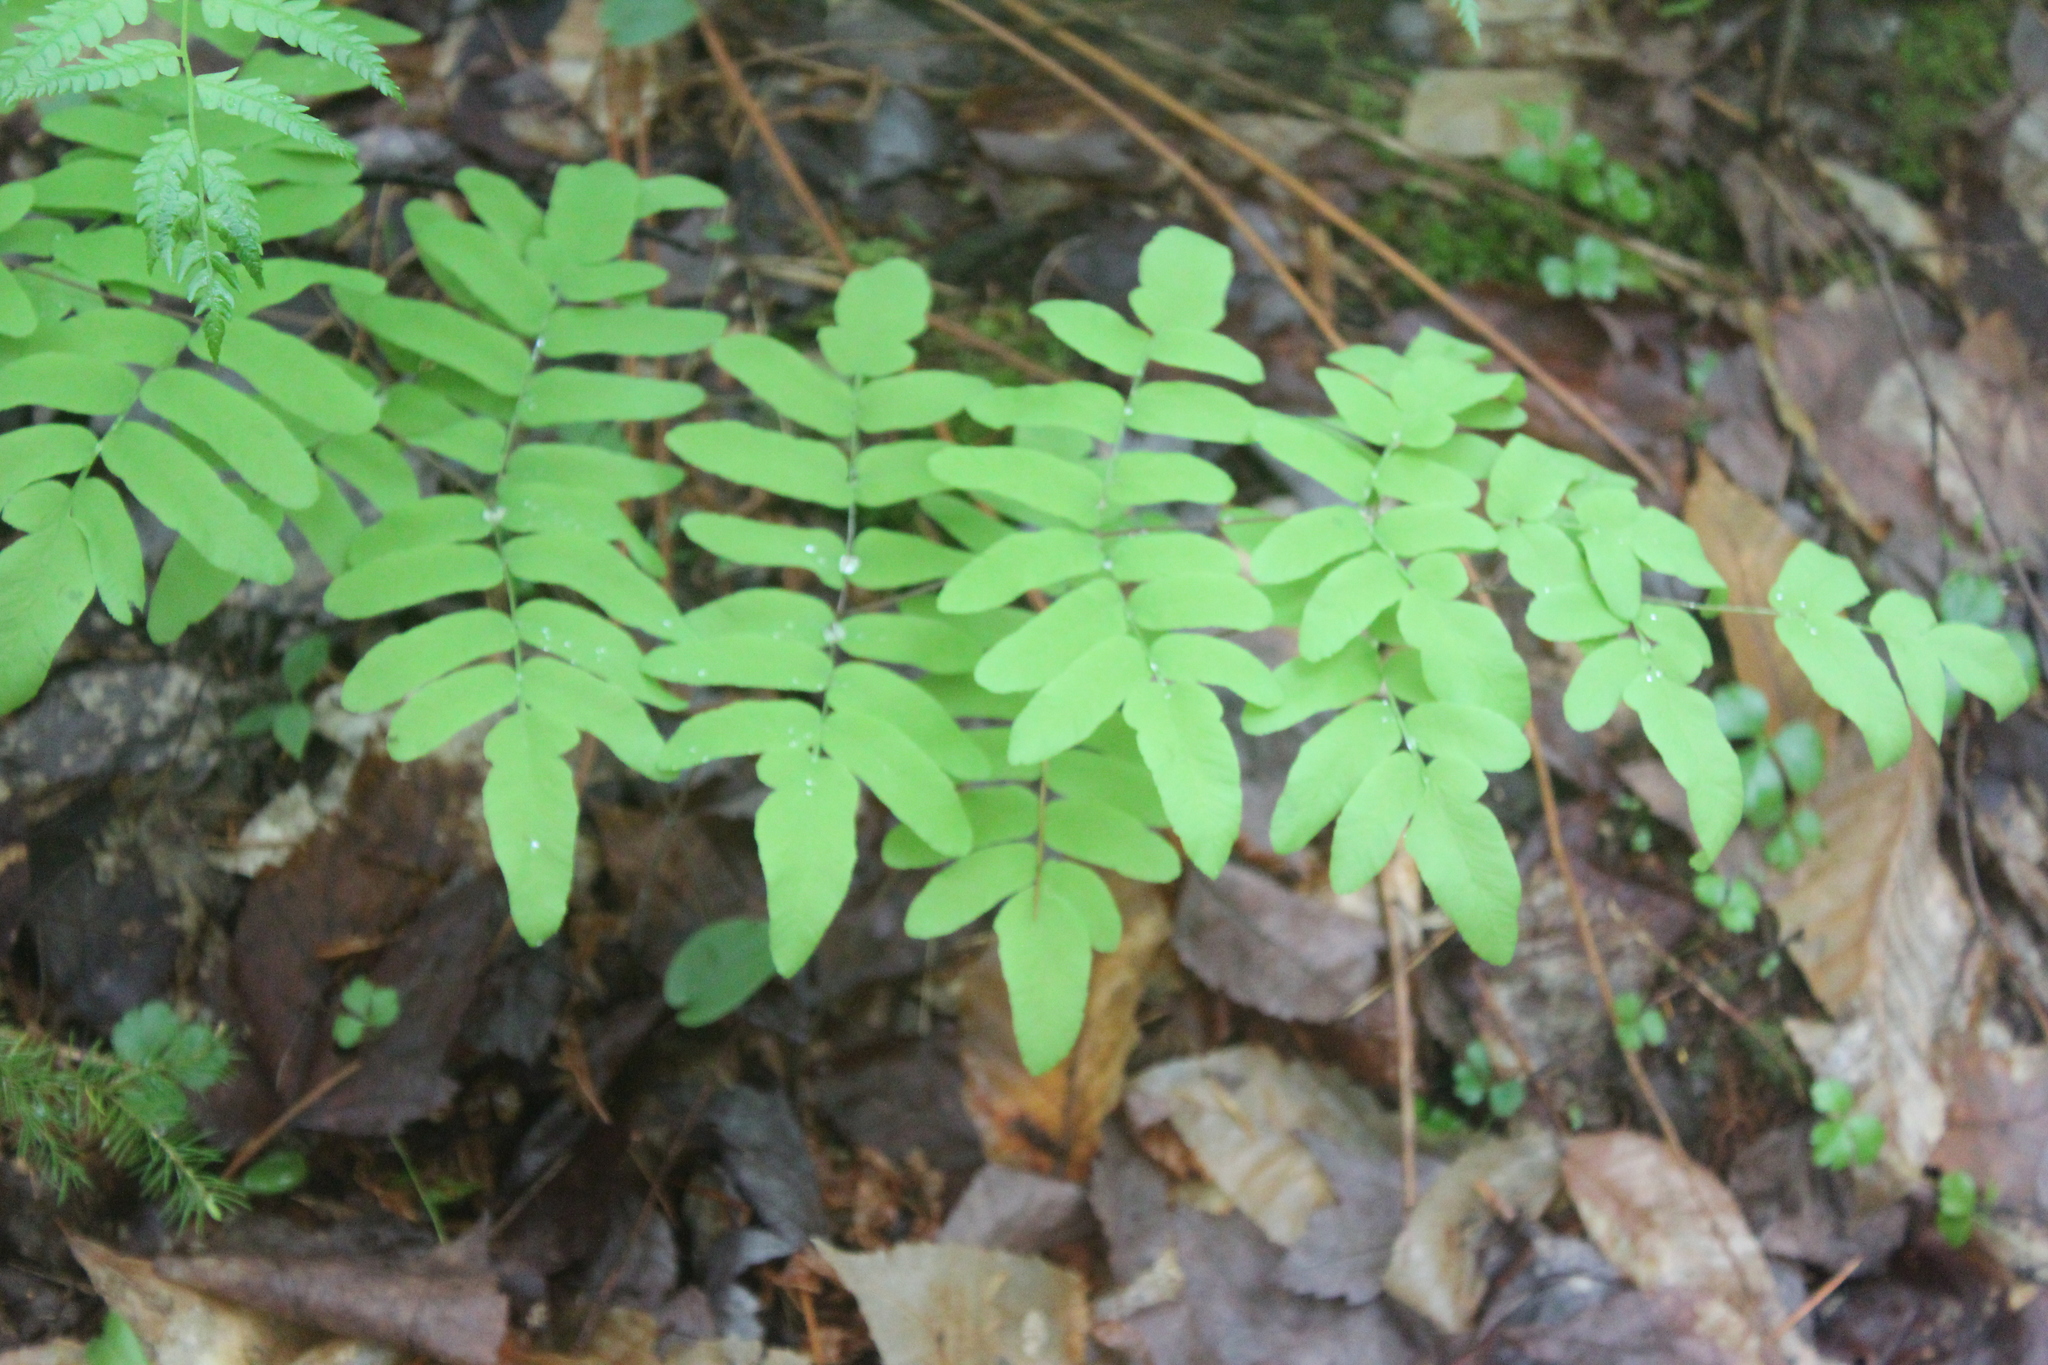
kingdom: Plantae
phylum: Tracheophyta
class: Polypodiopsida
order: Osmundales
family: Osmundaceae
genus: Osmunda
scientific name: Osmunda spectabilis
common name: American royal fern
